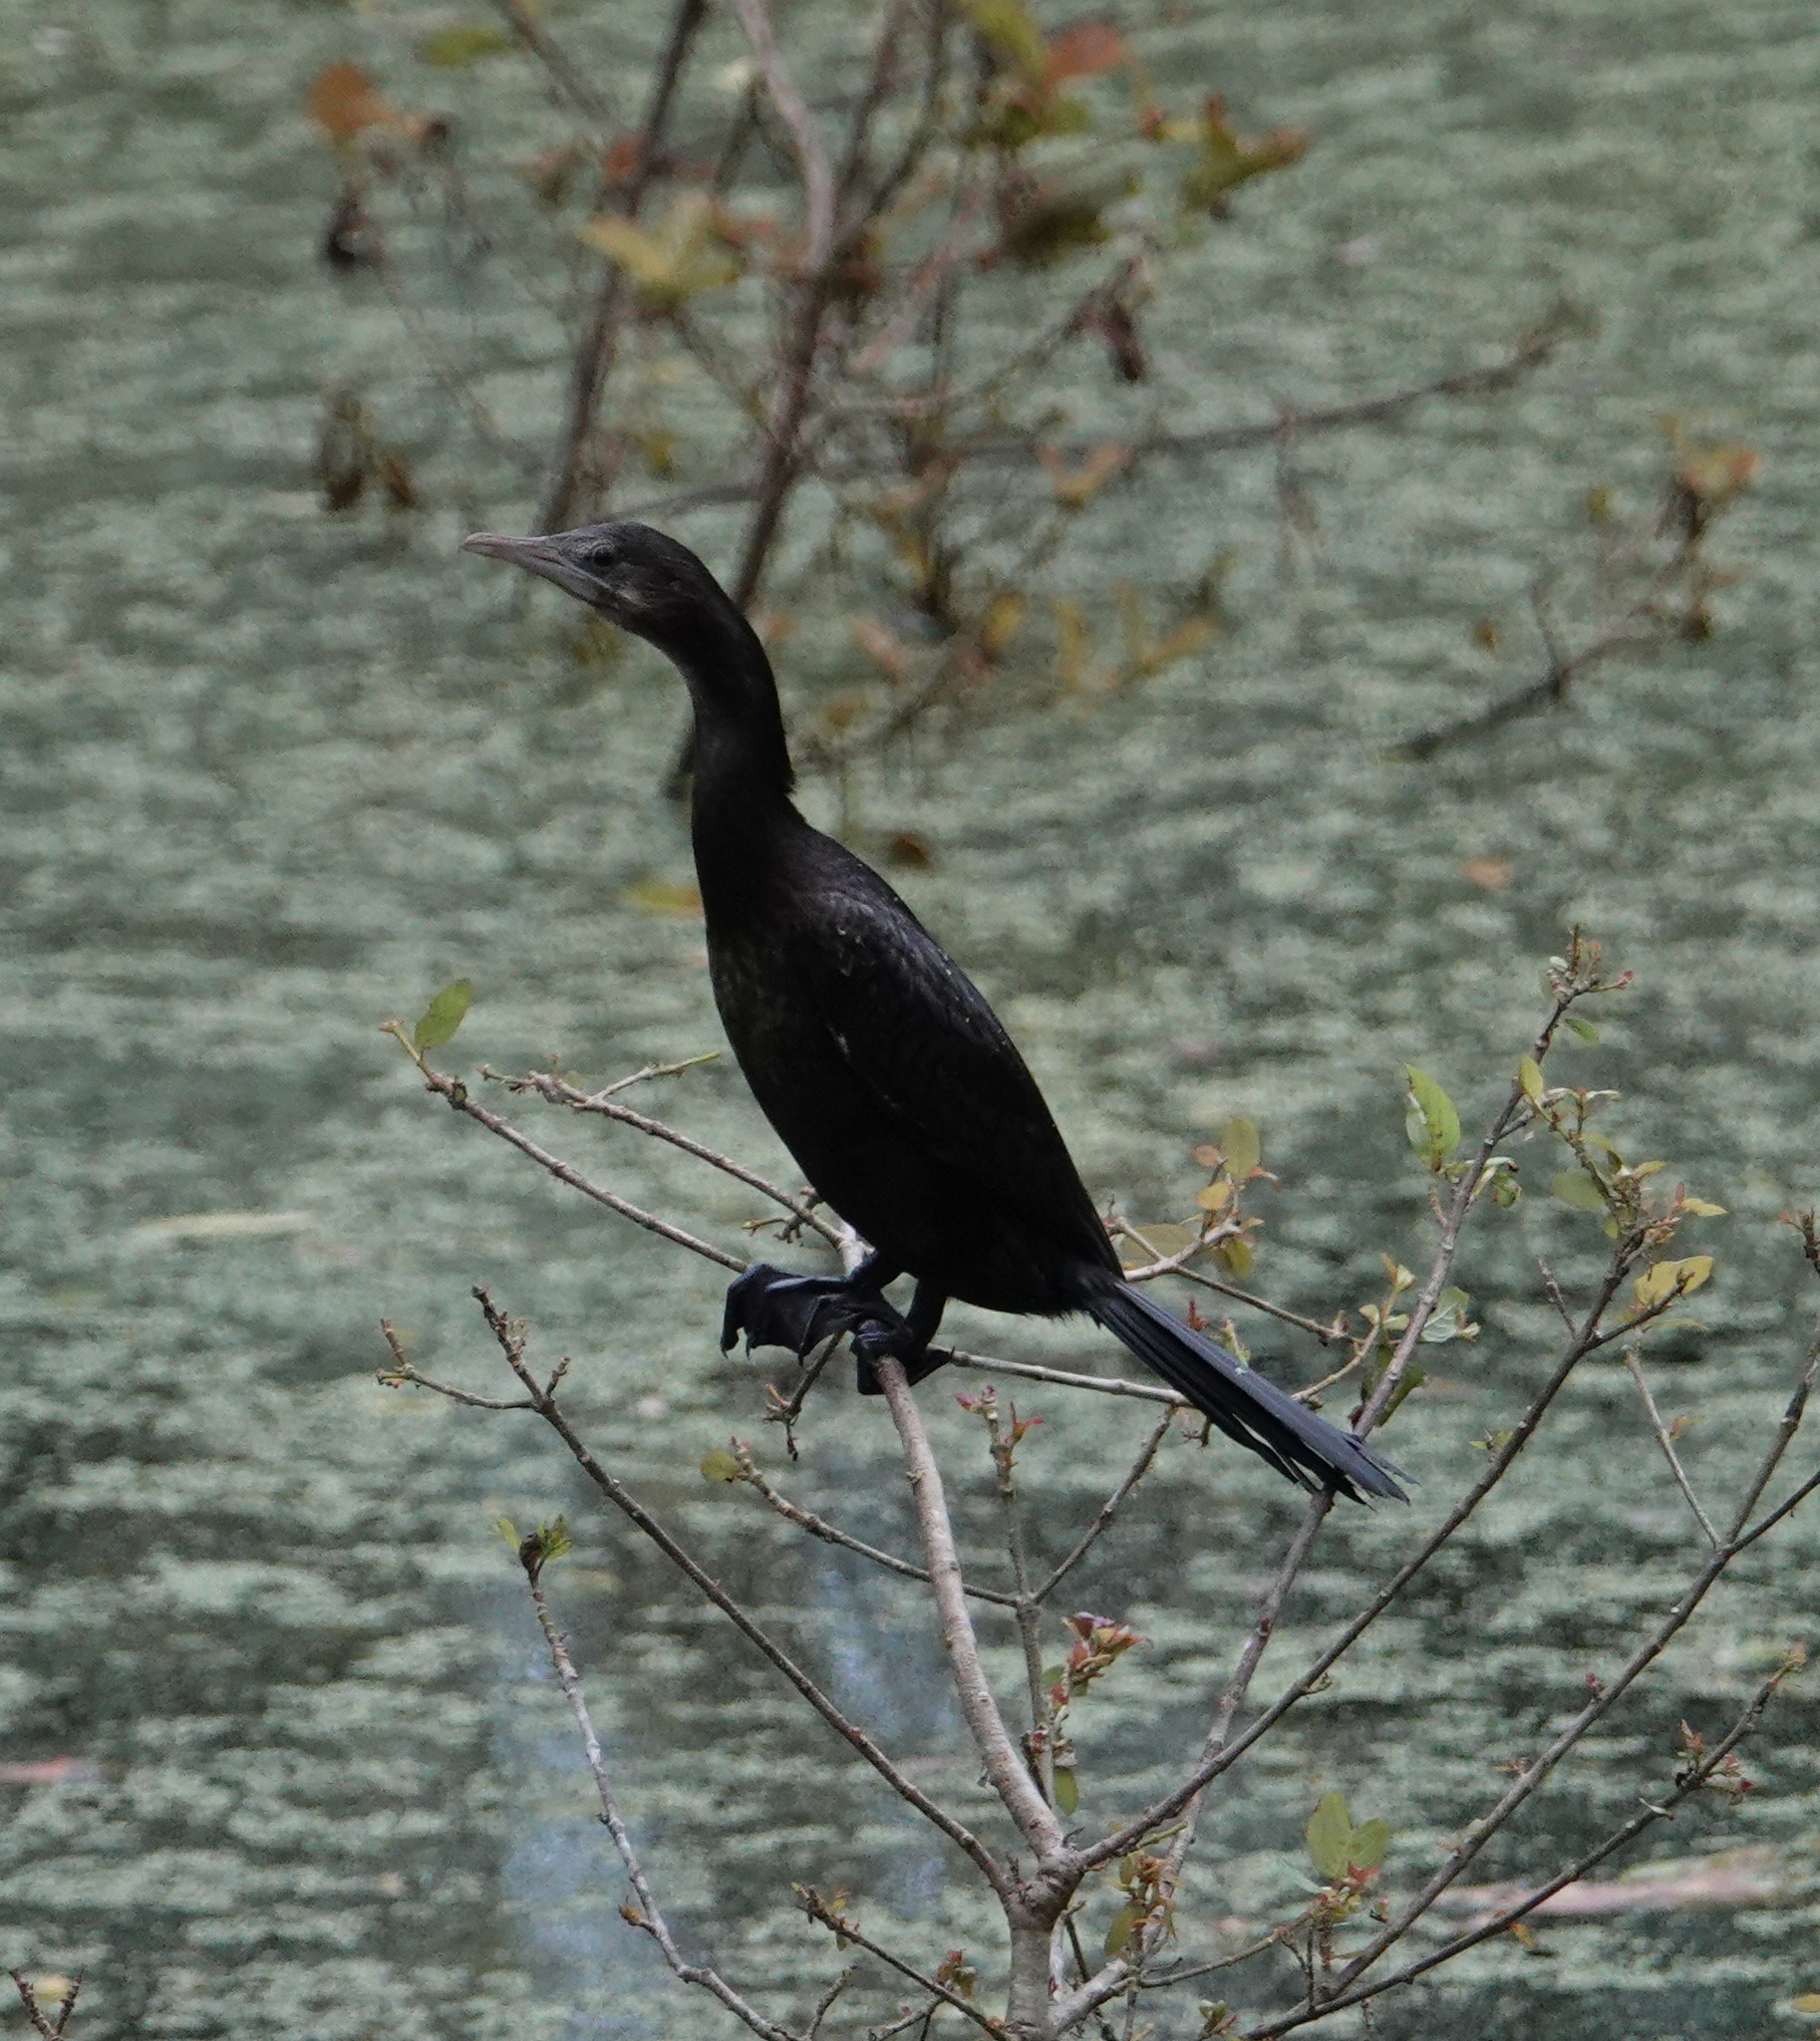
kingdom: Animalia
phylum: Chordata
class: Aves
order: Suliformes
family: Phalacrocoracidae
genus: Microcarbo
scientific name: Microcarbo niger
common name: Little cormorant
